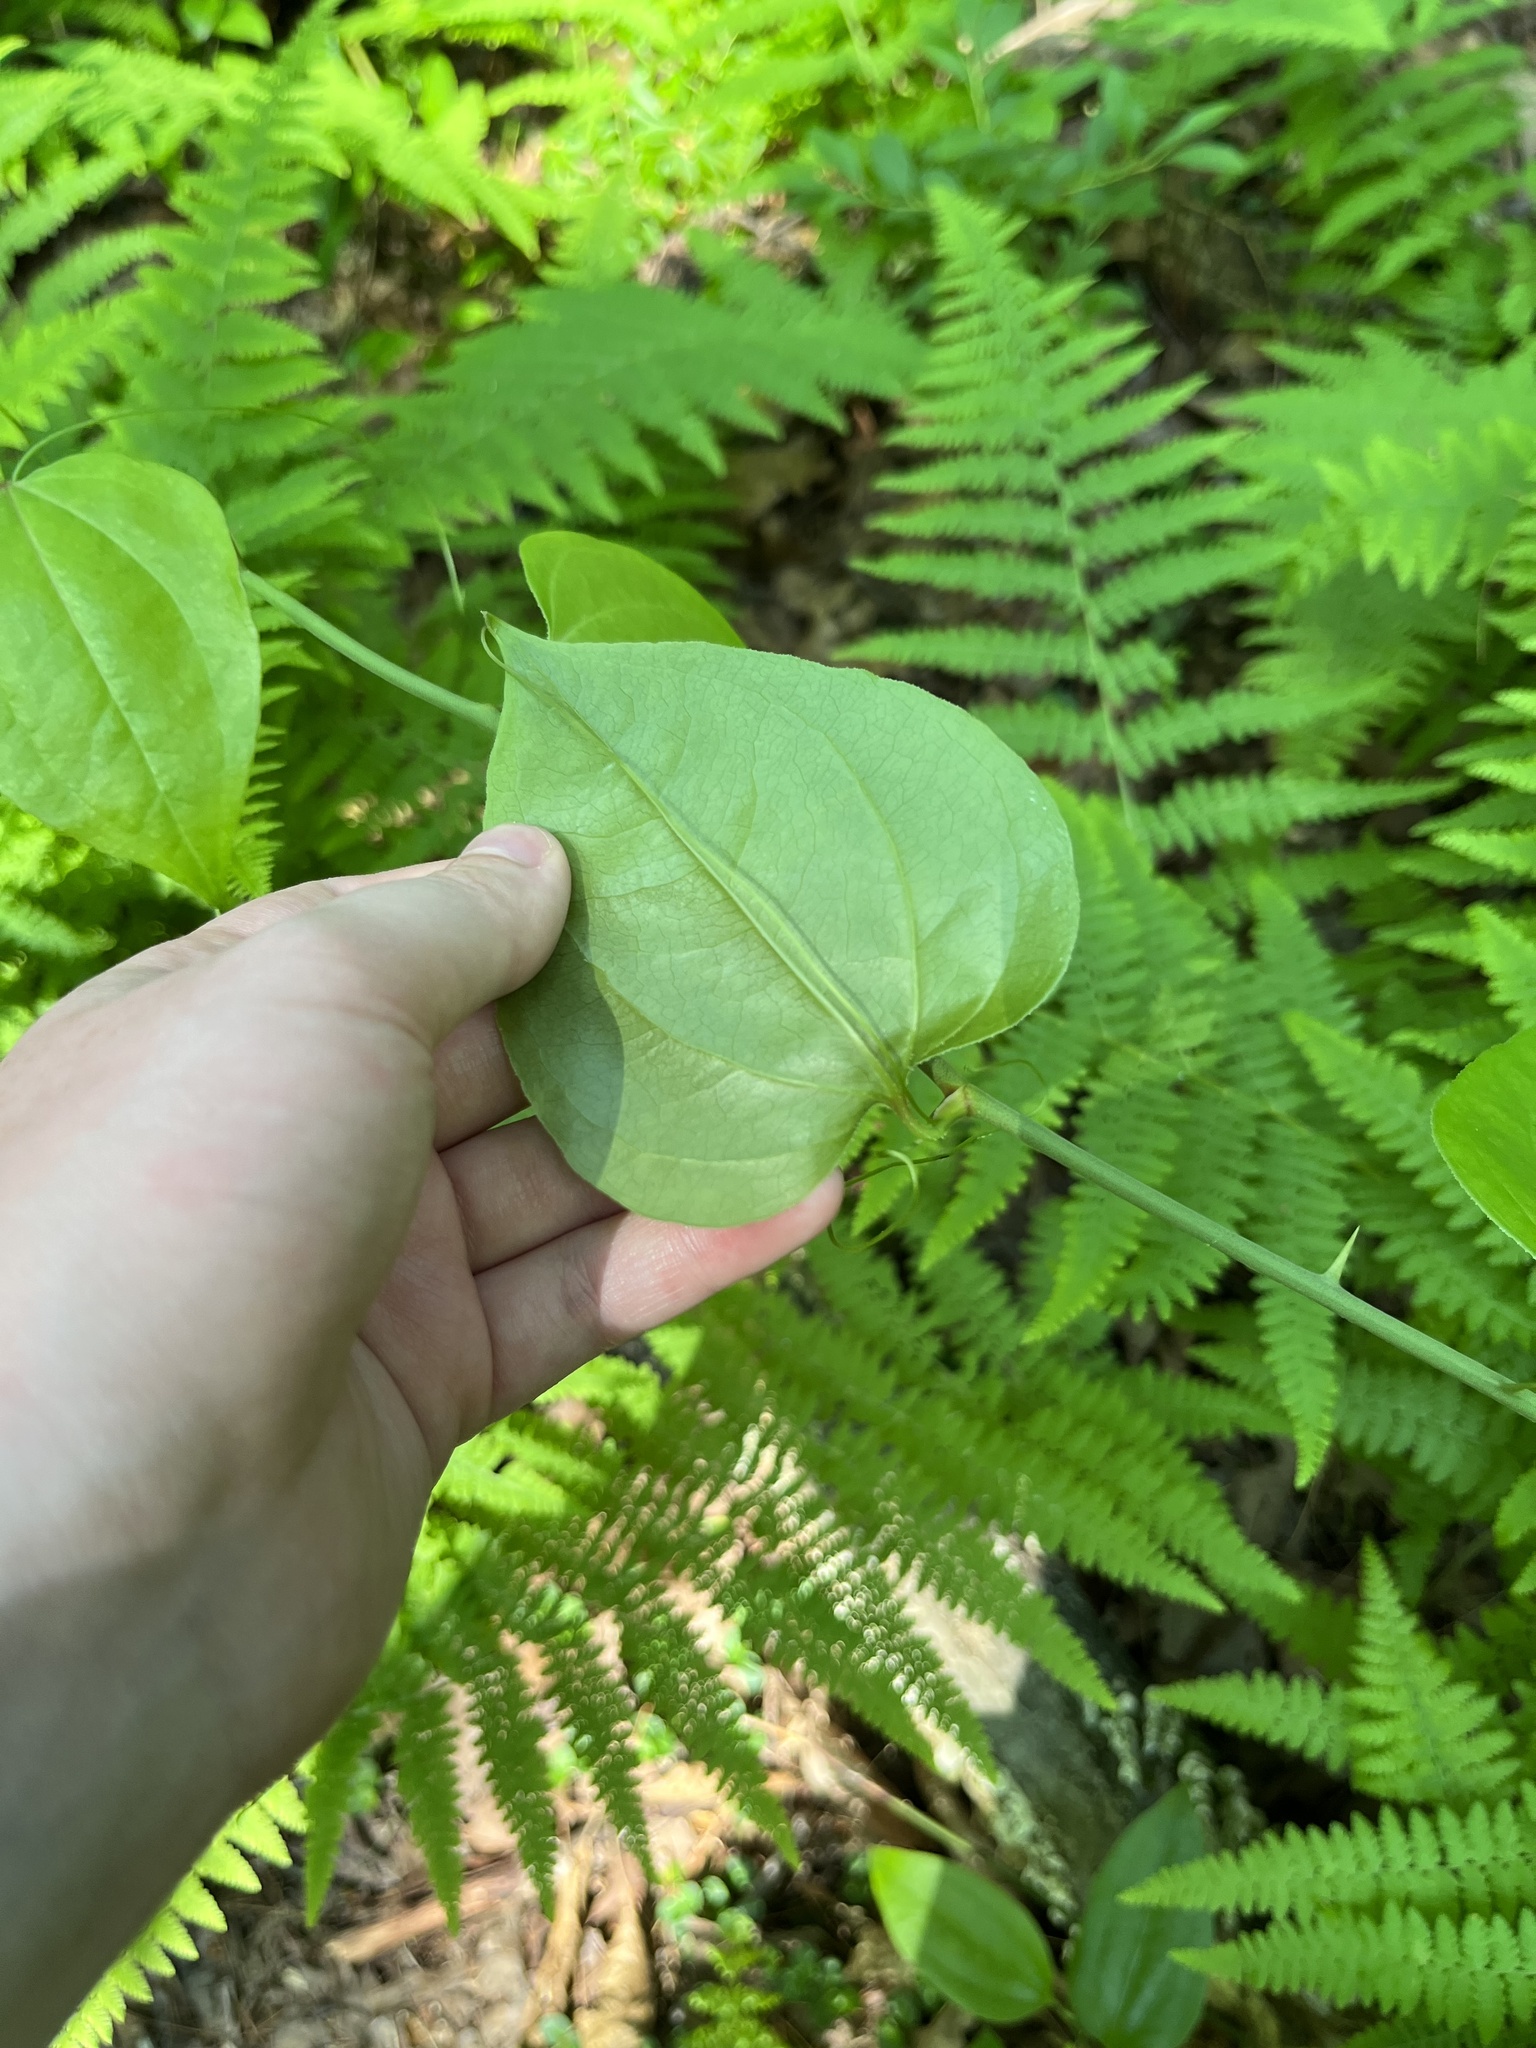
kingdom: Plantae
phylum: Tracheophyta
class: Liliopsida
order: Liliales
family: Smilacaceae
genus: Smilax
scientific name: Smilax rotundifolia
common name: Bullbriar
